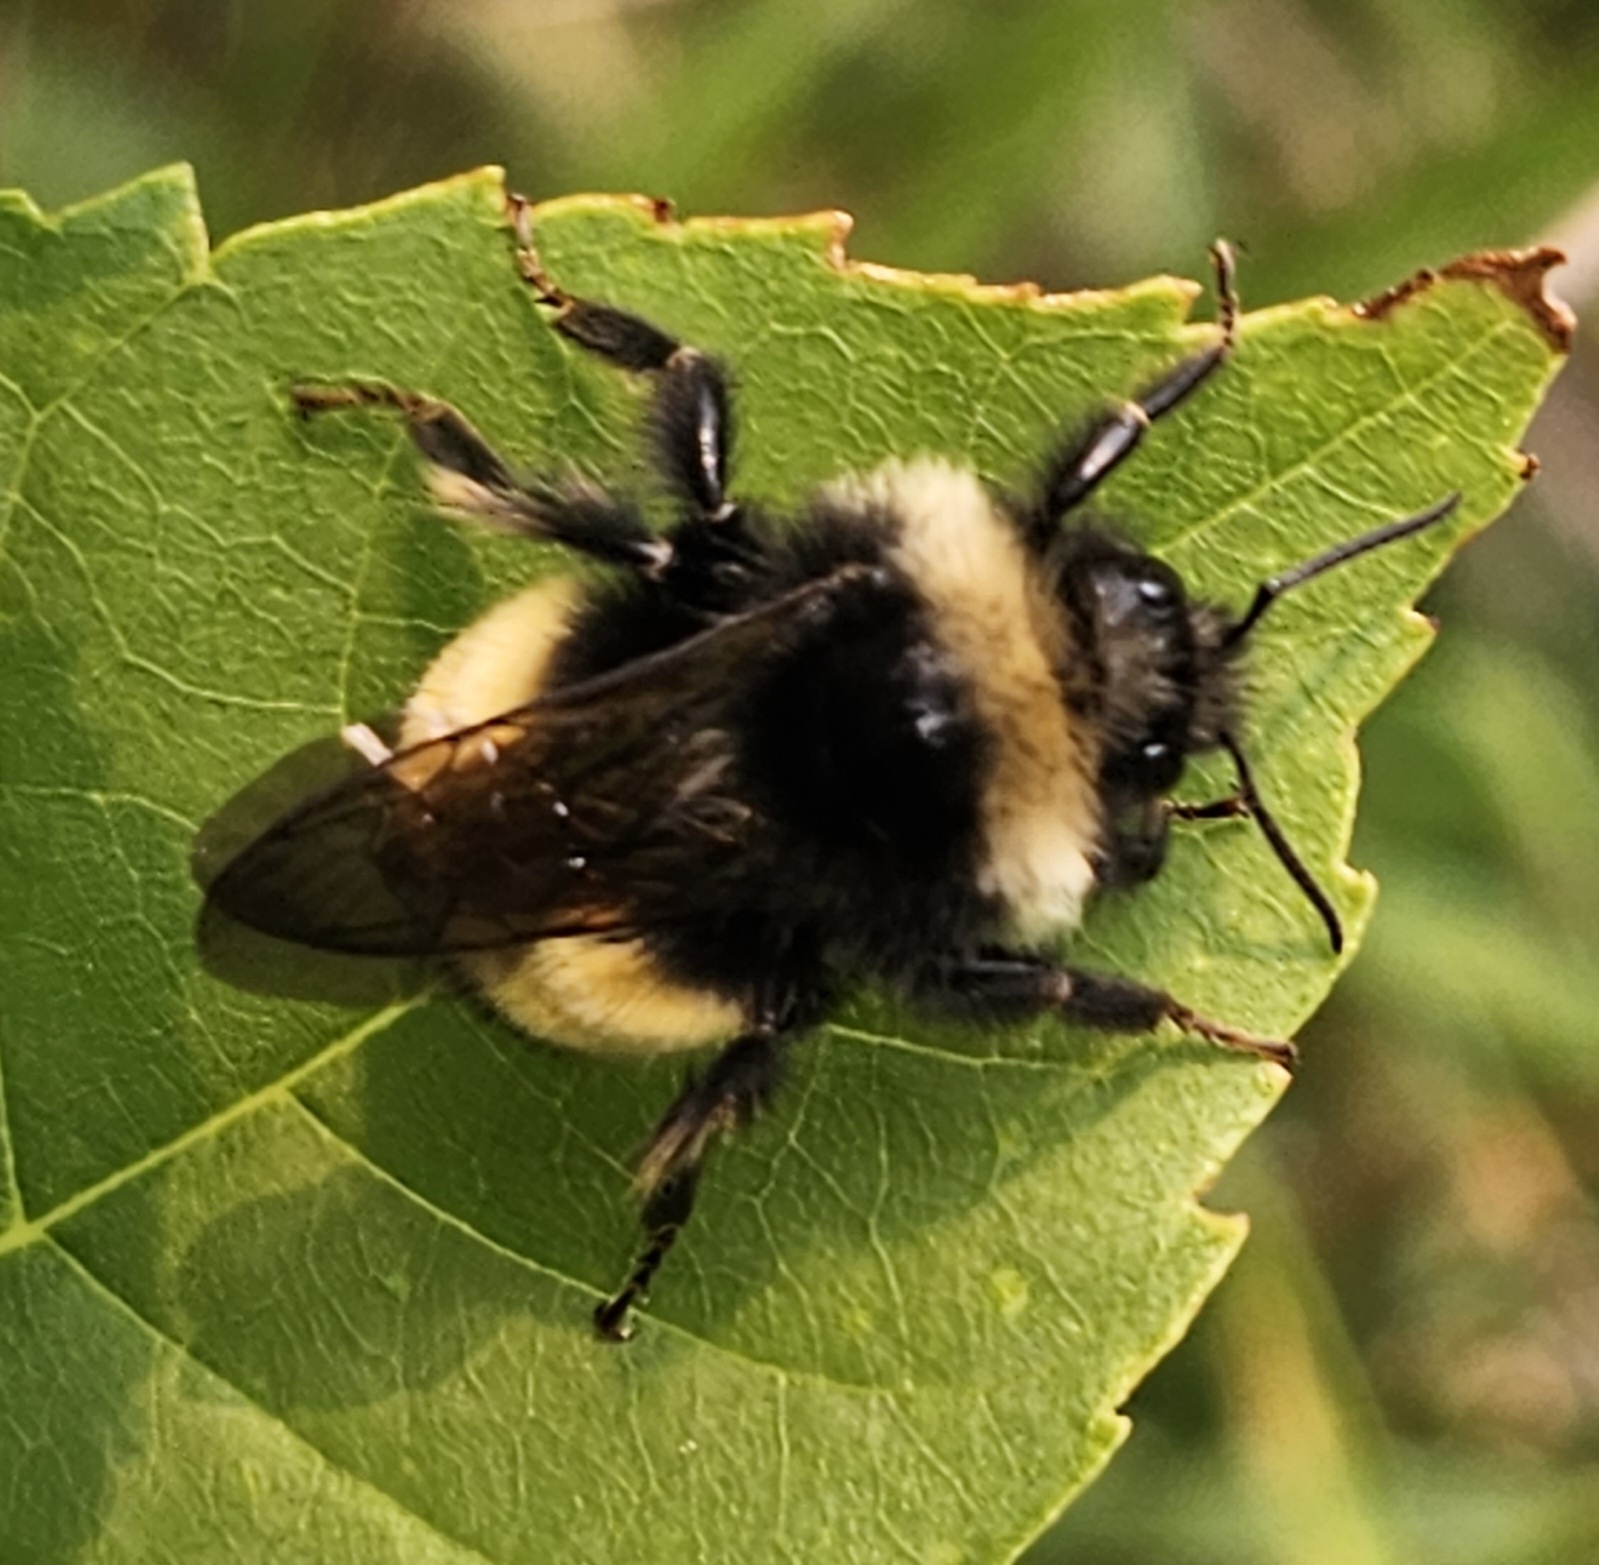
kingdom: Animalia
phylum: Arthropoda
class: Insecta
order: Hymenoptera
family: Apidae
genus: Bombus
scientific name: Bombus terricola
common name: Yellow-banded bumble bee
